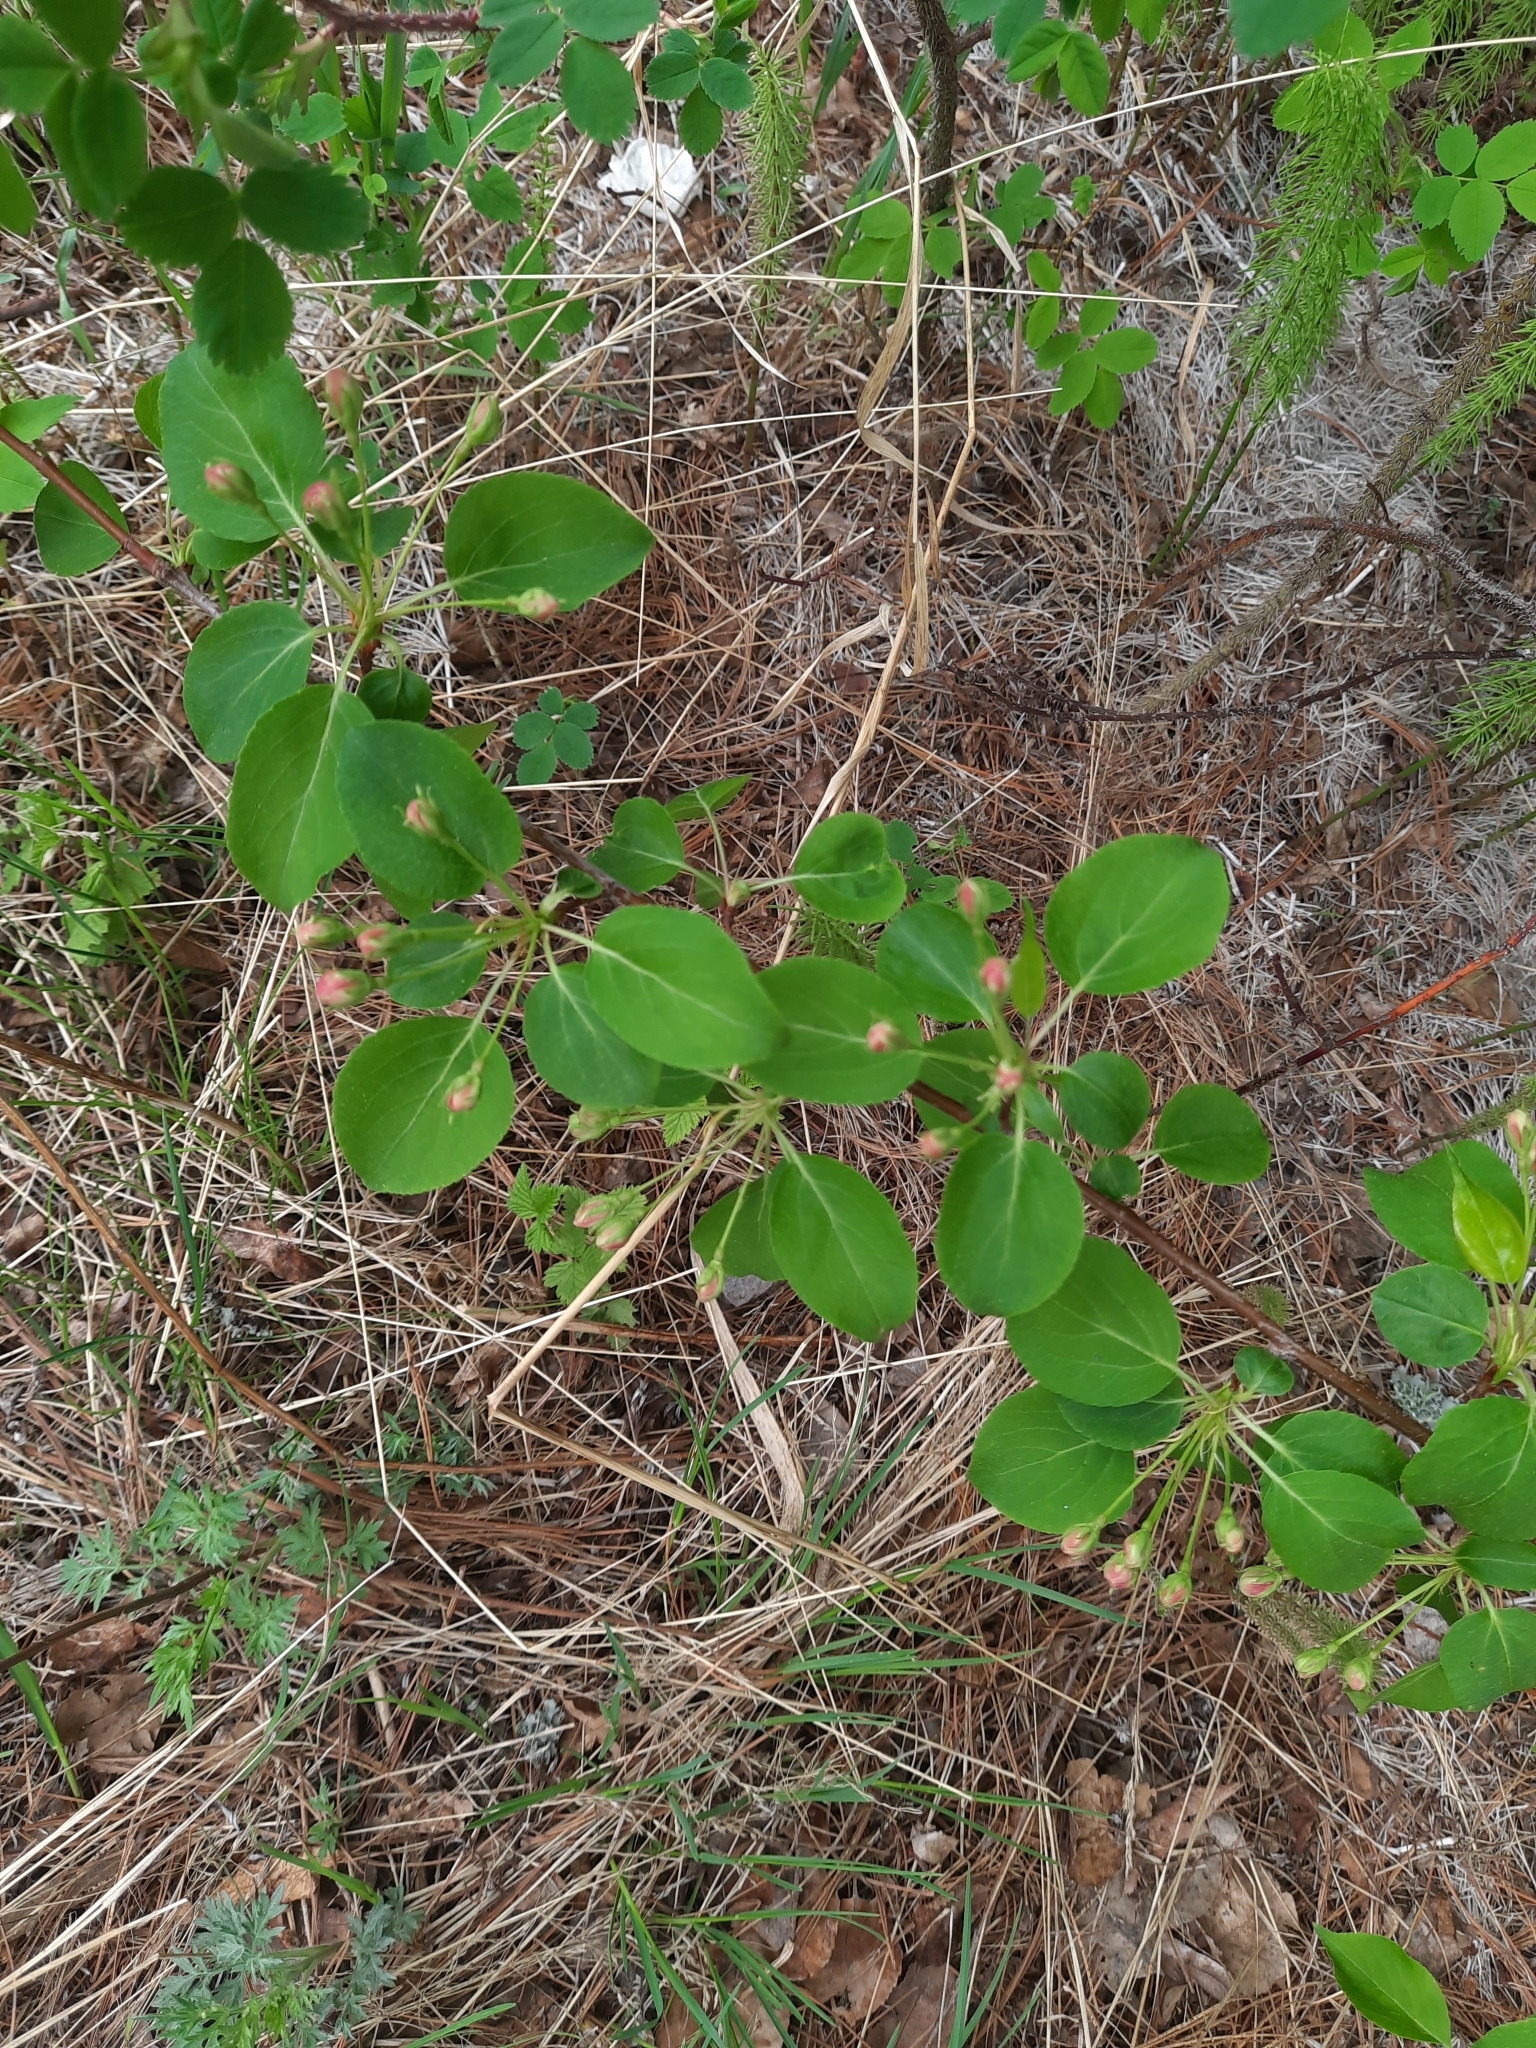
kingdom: Plantae
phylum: Tracheophyta
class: Magnoliopsida
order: Rosales
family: Rosaceae
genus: Malus
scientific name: Malus baccata
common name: Siberian crab
